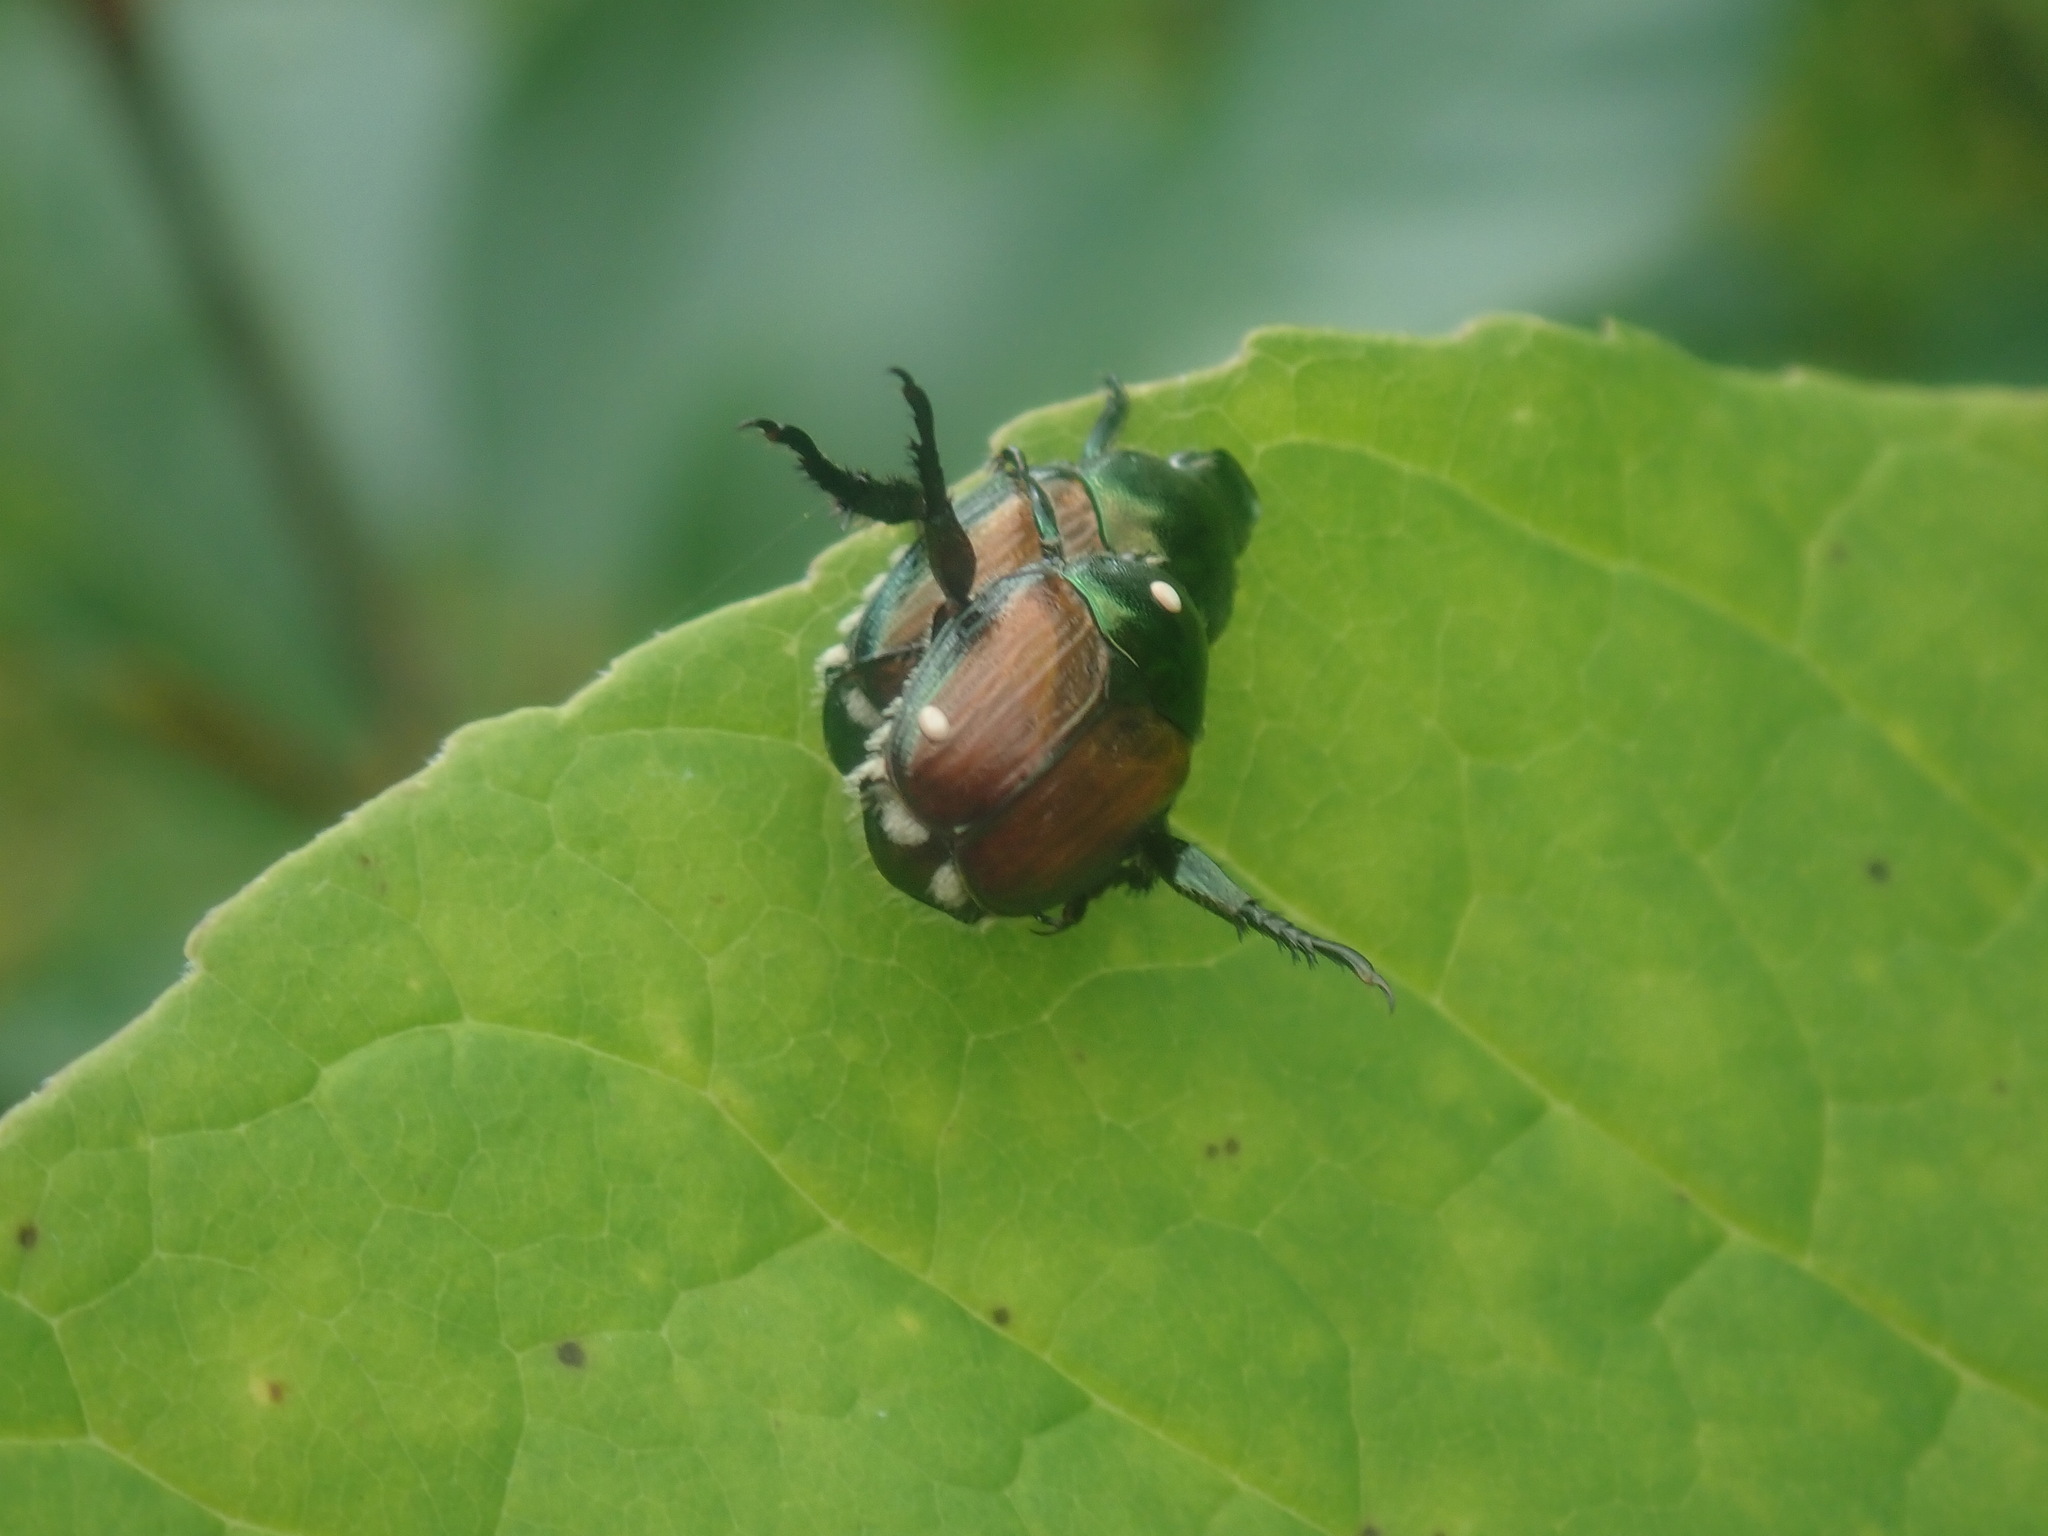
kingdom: Animalia
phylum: Arthropoda
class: Insecta
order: Diptera
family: Tachinidae
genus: Istocheta
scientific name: Istocheta aldrichi
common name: Parasitic wasp
